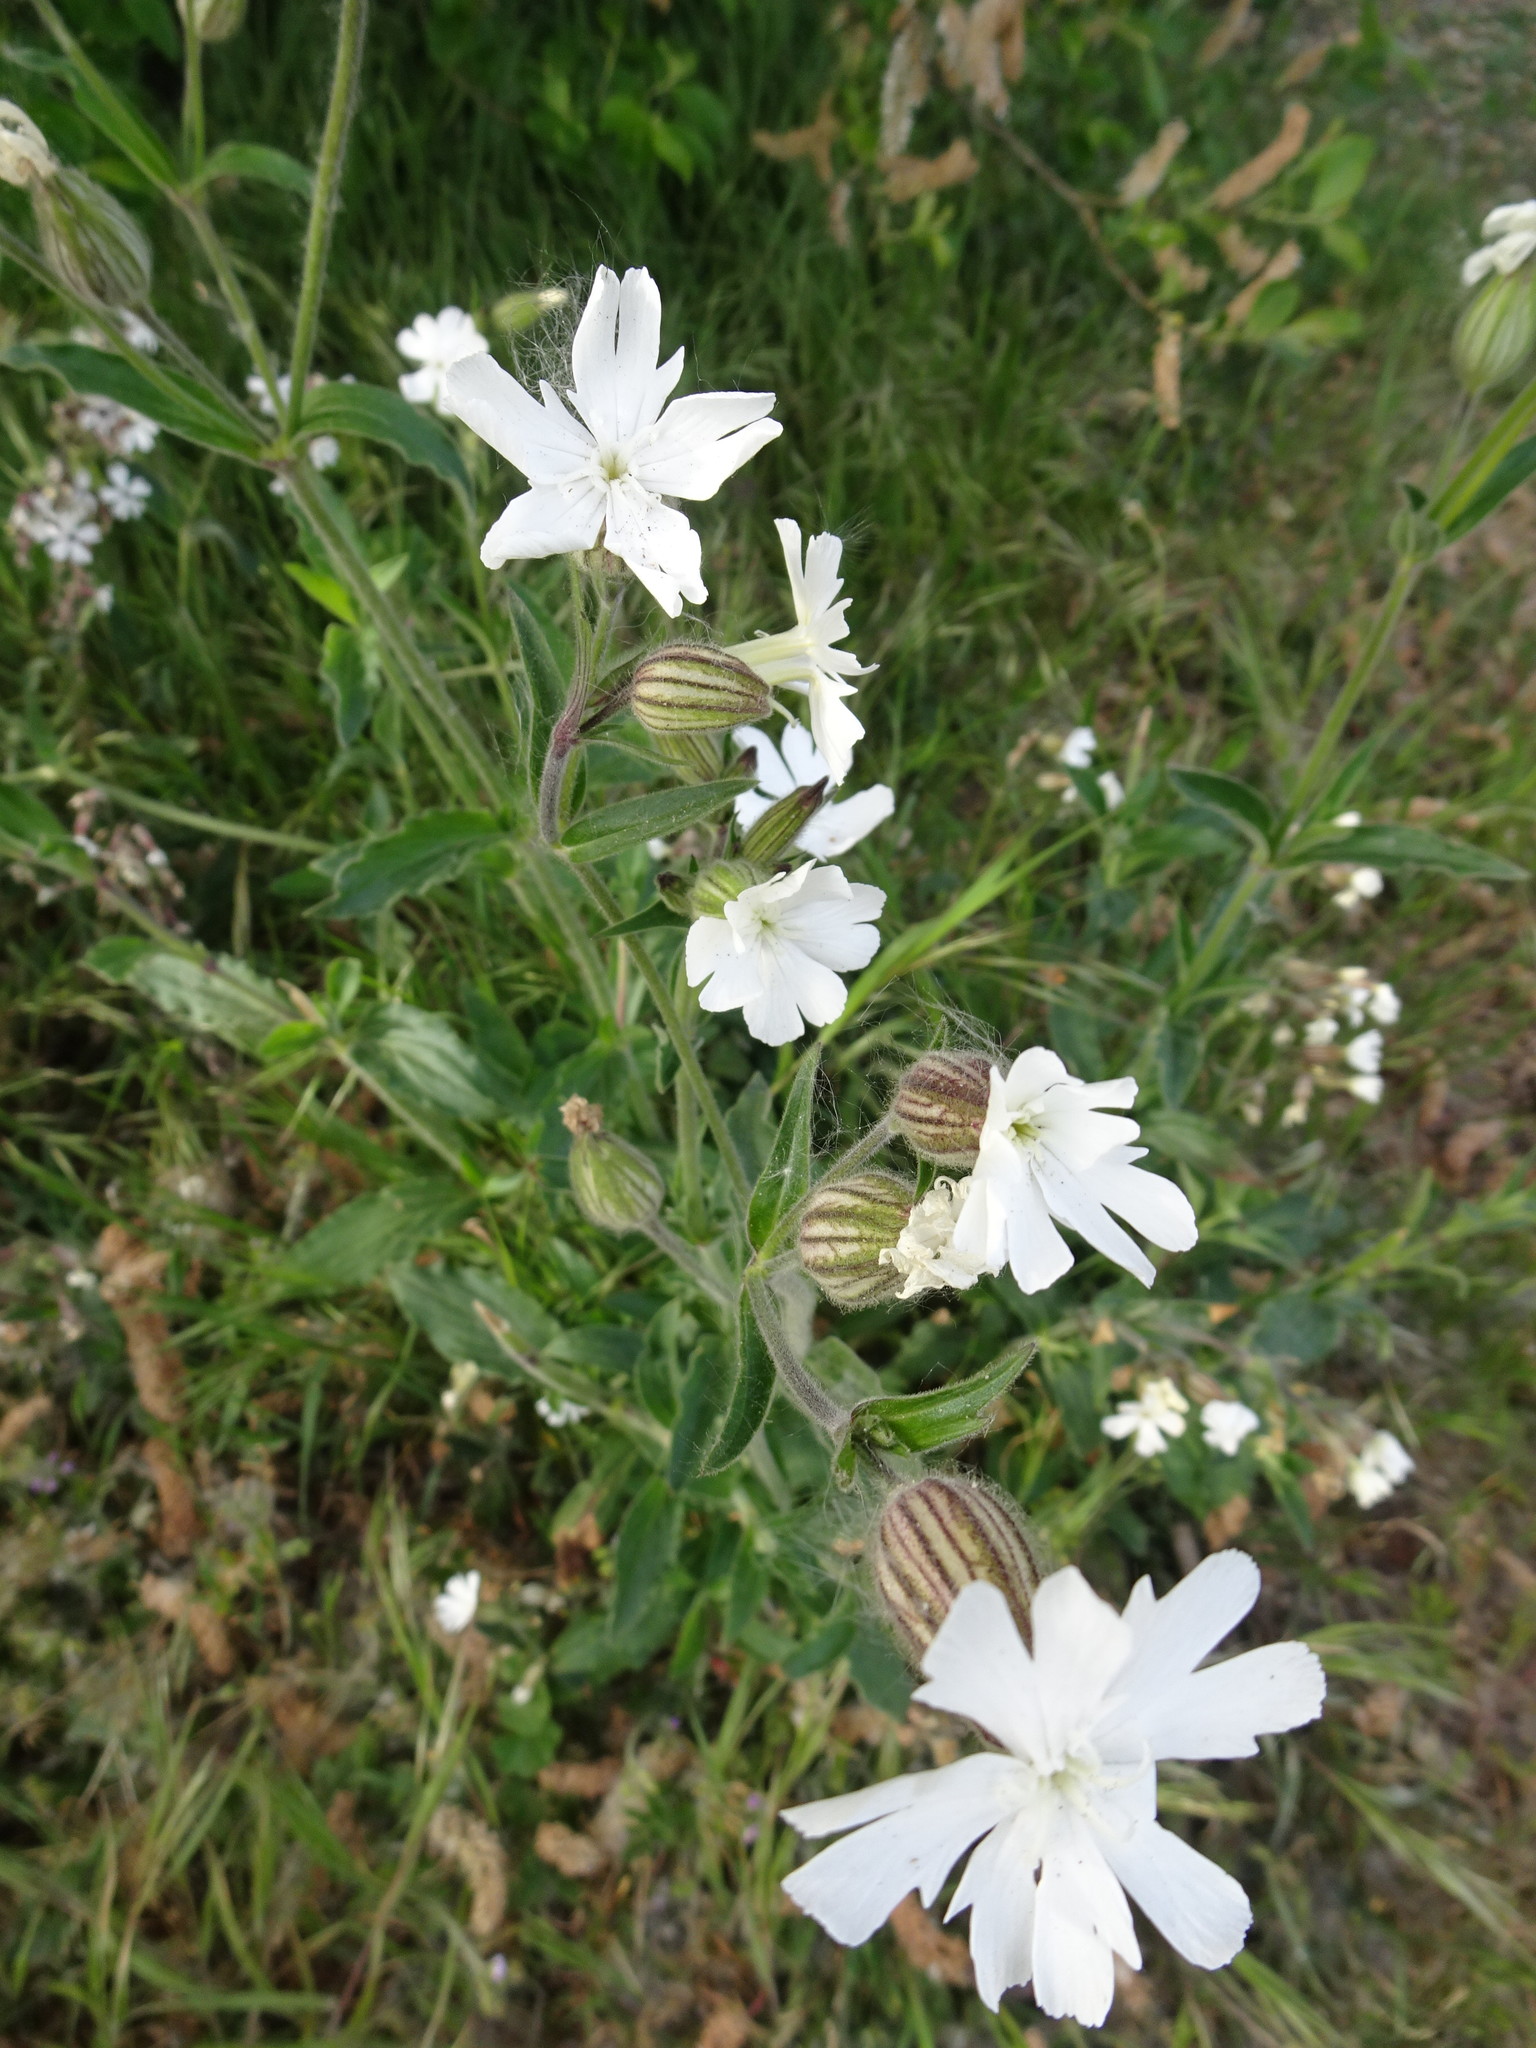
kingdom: Plantae
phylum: Tracheophyta
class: Magnoliopsida
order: Caryophyllales
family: Caryophyllaceae
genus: Silene
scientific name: Silene latifolia
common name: White campion
